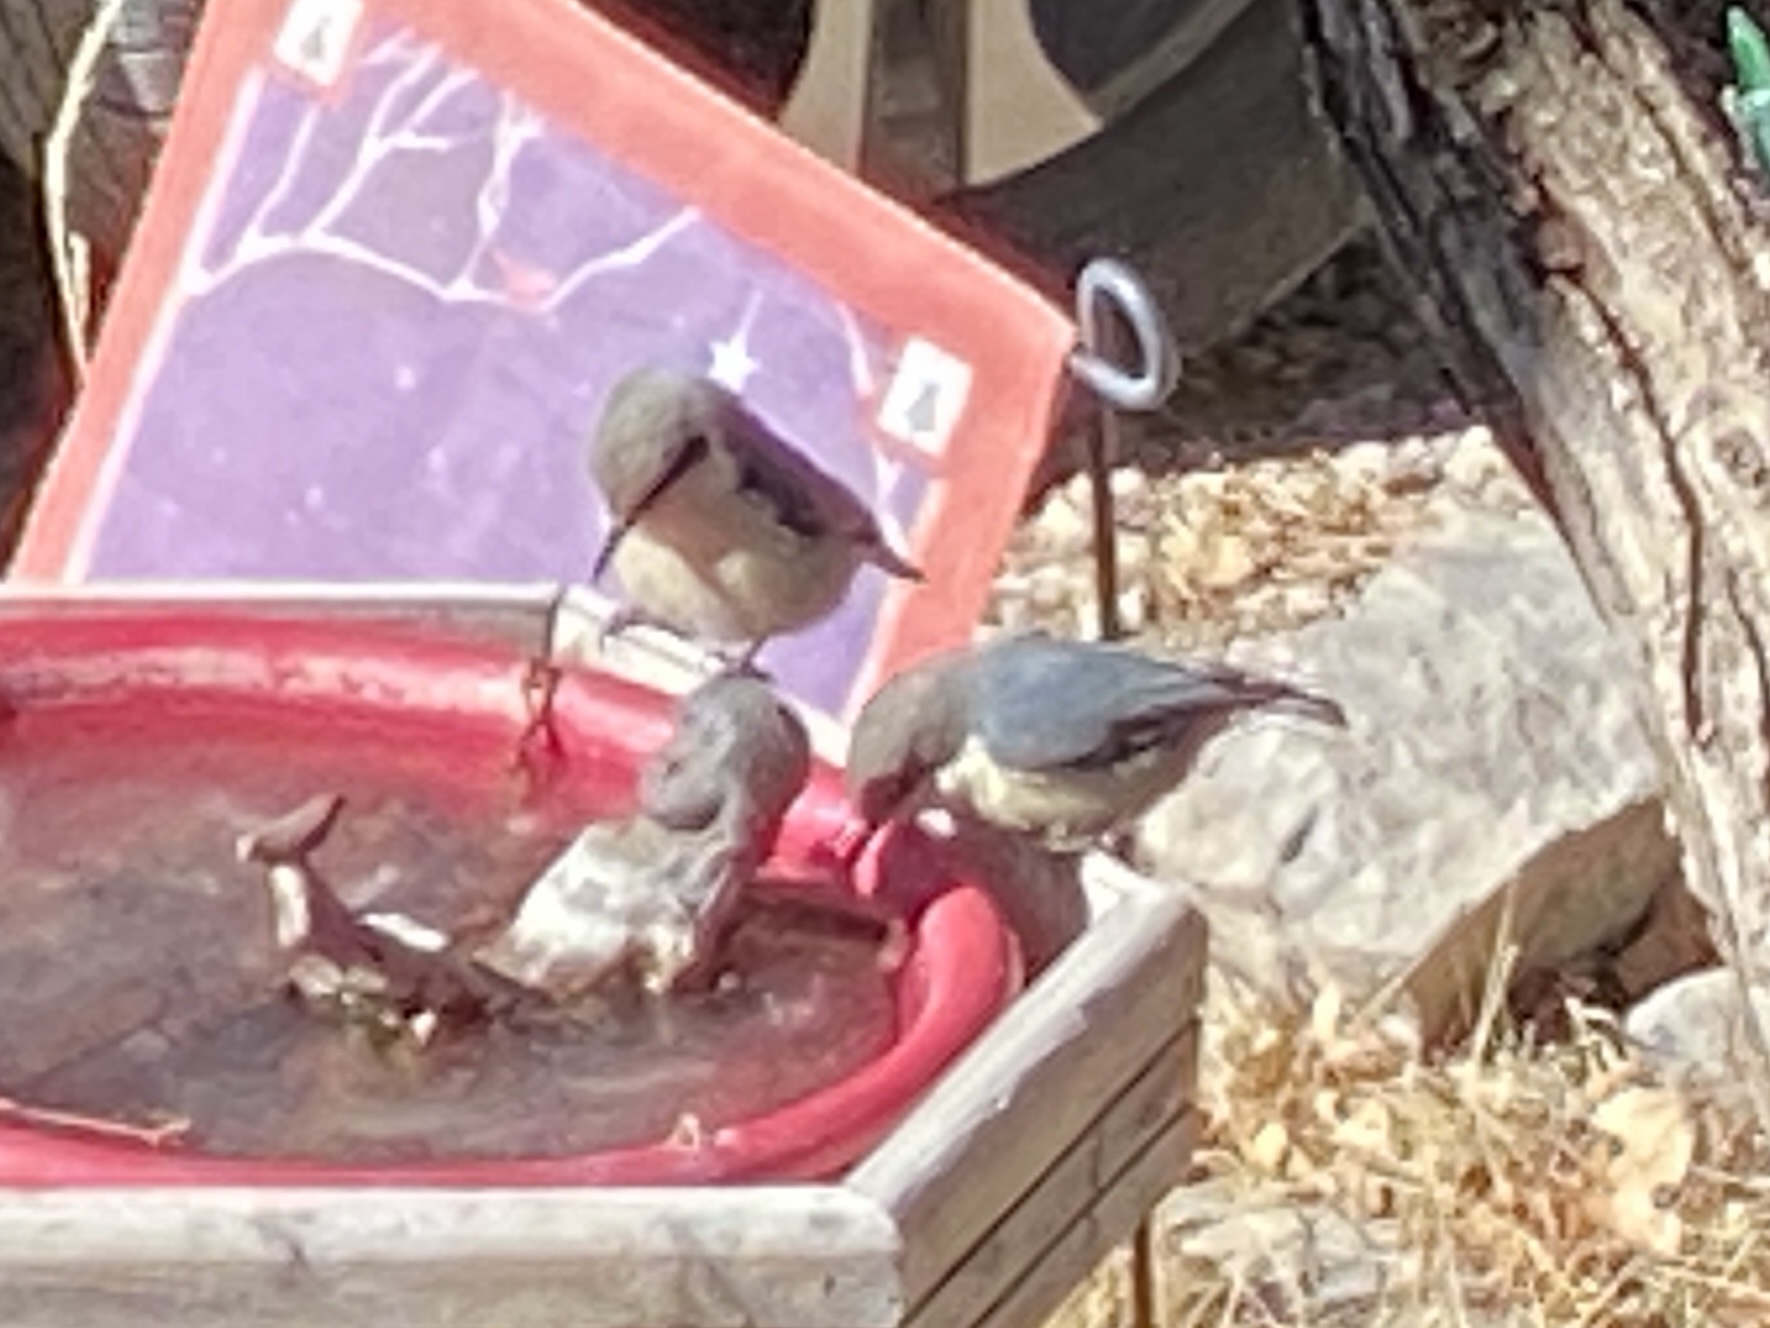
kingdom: Animalia
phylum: Chordata
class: Aves
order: Passeriformes
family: Sittidae
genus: Sitta
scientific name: Sitta pygmaea
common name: Pygmy nuthatch
